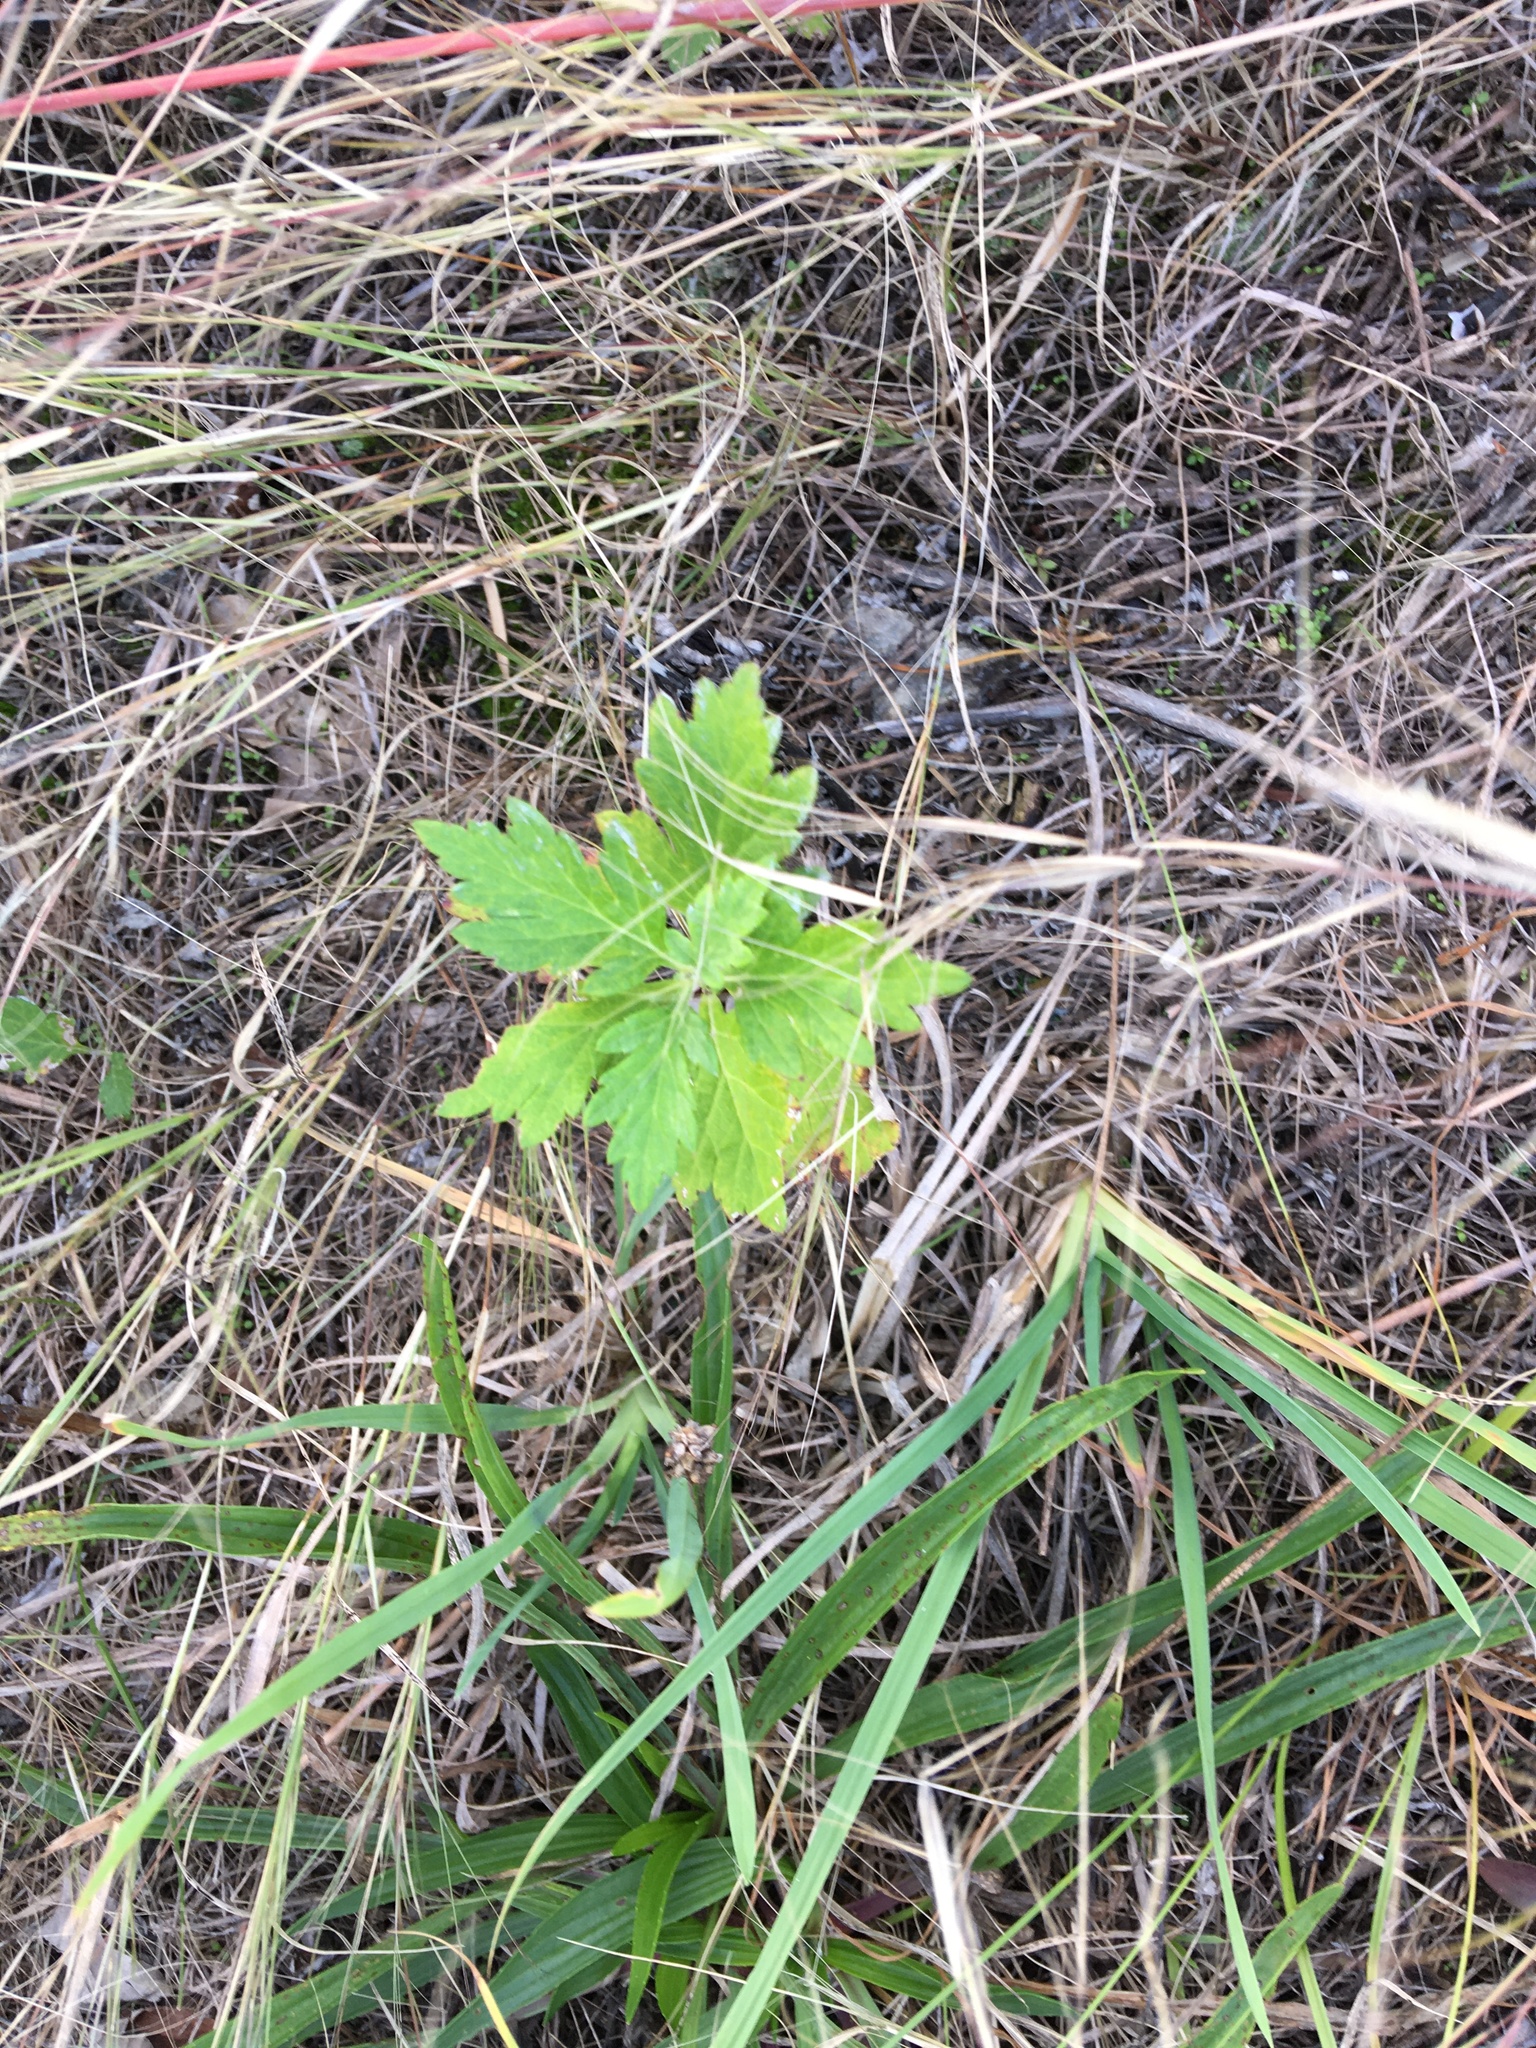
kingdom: Plantae
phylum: Tracheophyta
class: Magnoliopsida
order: Asterales
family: Asteraceae
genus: Artemisia
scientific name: Artemisia vulgaris
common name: Mugwort
